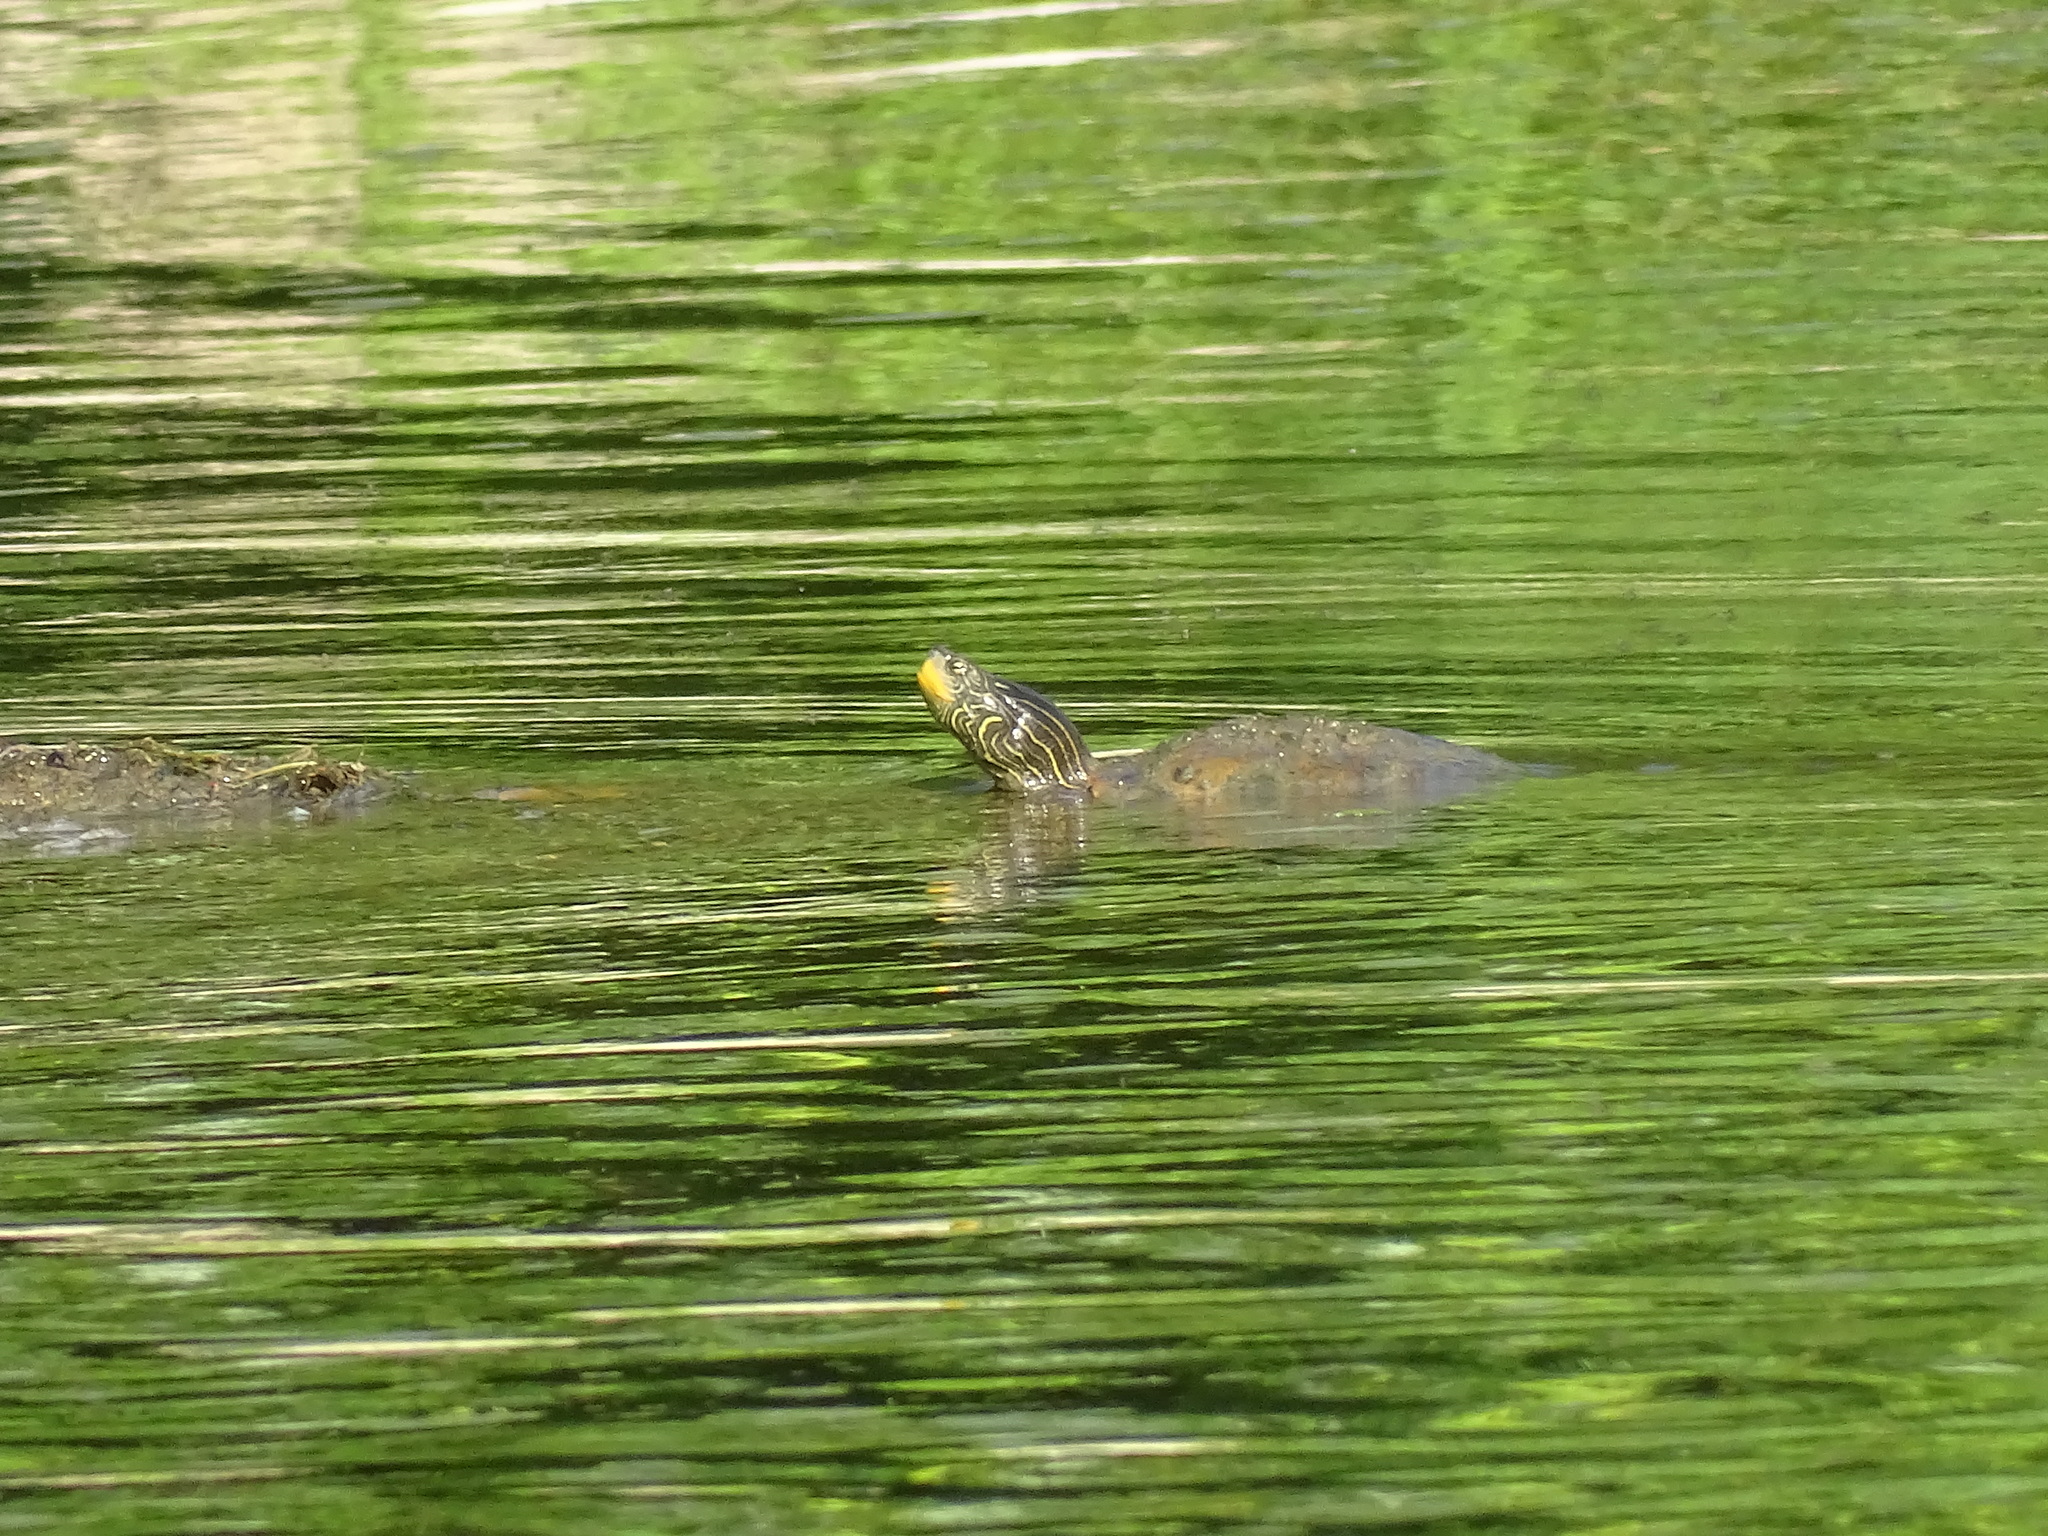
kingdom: Animalia
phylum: Chordata
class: Testudines
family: Emydidae
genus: Graptemys
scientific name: Graptemys geographica
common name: Common map turtle
